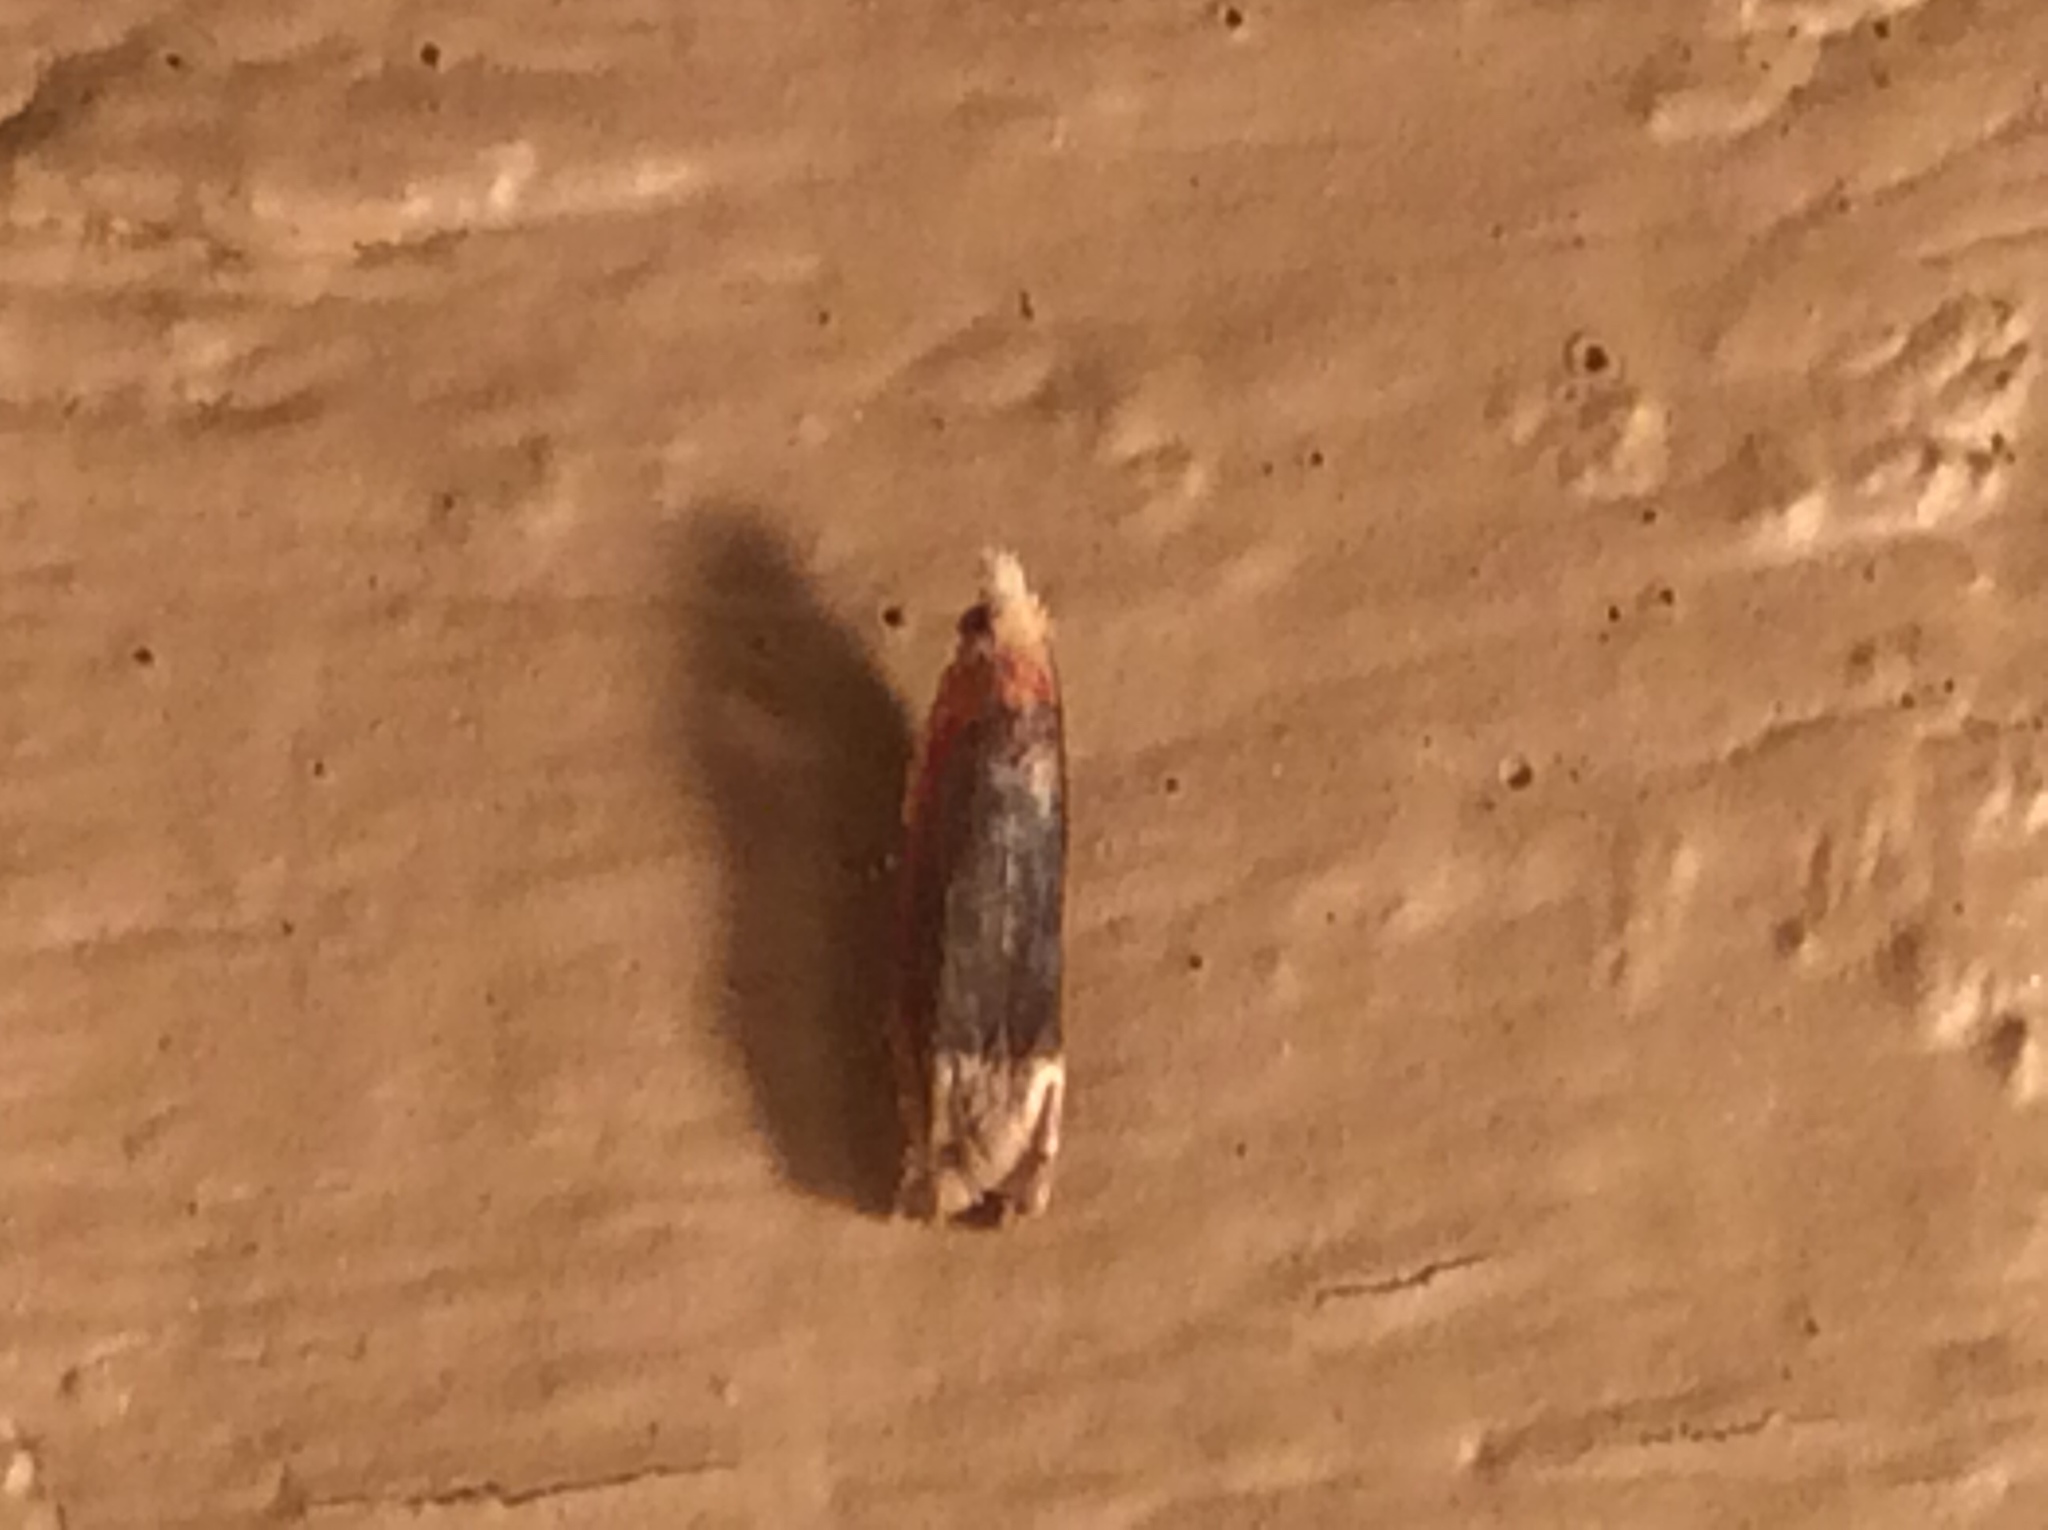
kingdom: Animalia
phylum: Arthropoda
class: Insecta
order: Lepidoptera
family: Tortricidae
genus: Eucosma
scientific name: Eucosma raracana
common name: Reddish eucosma moth
